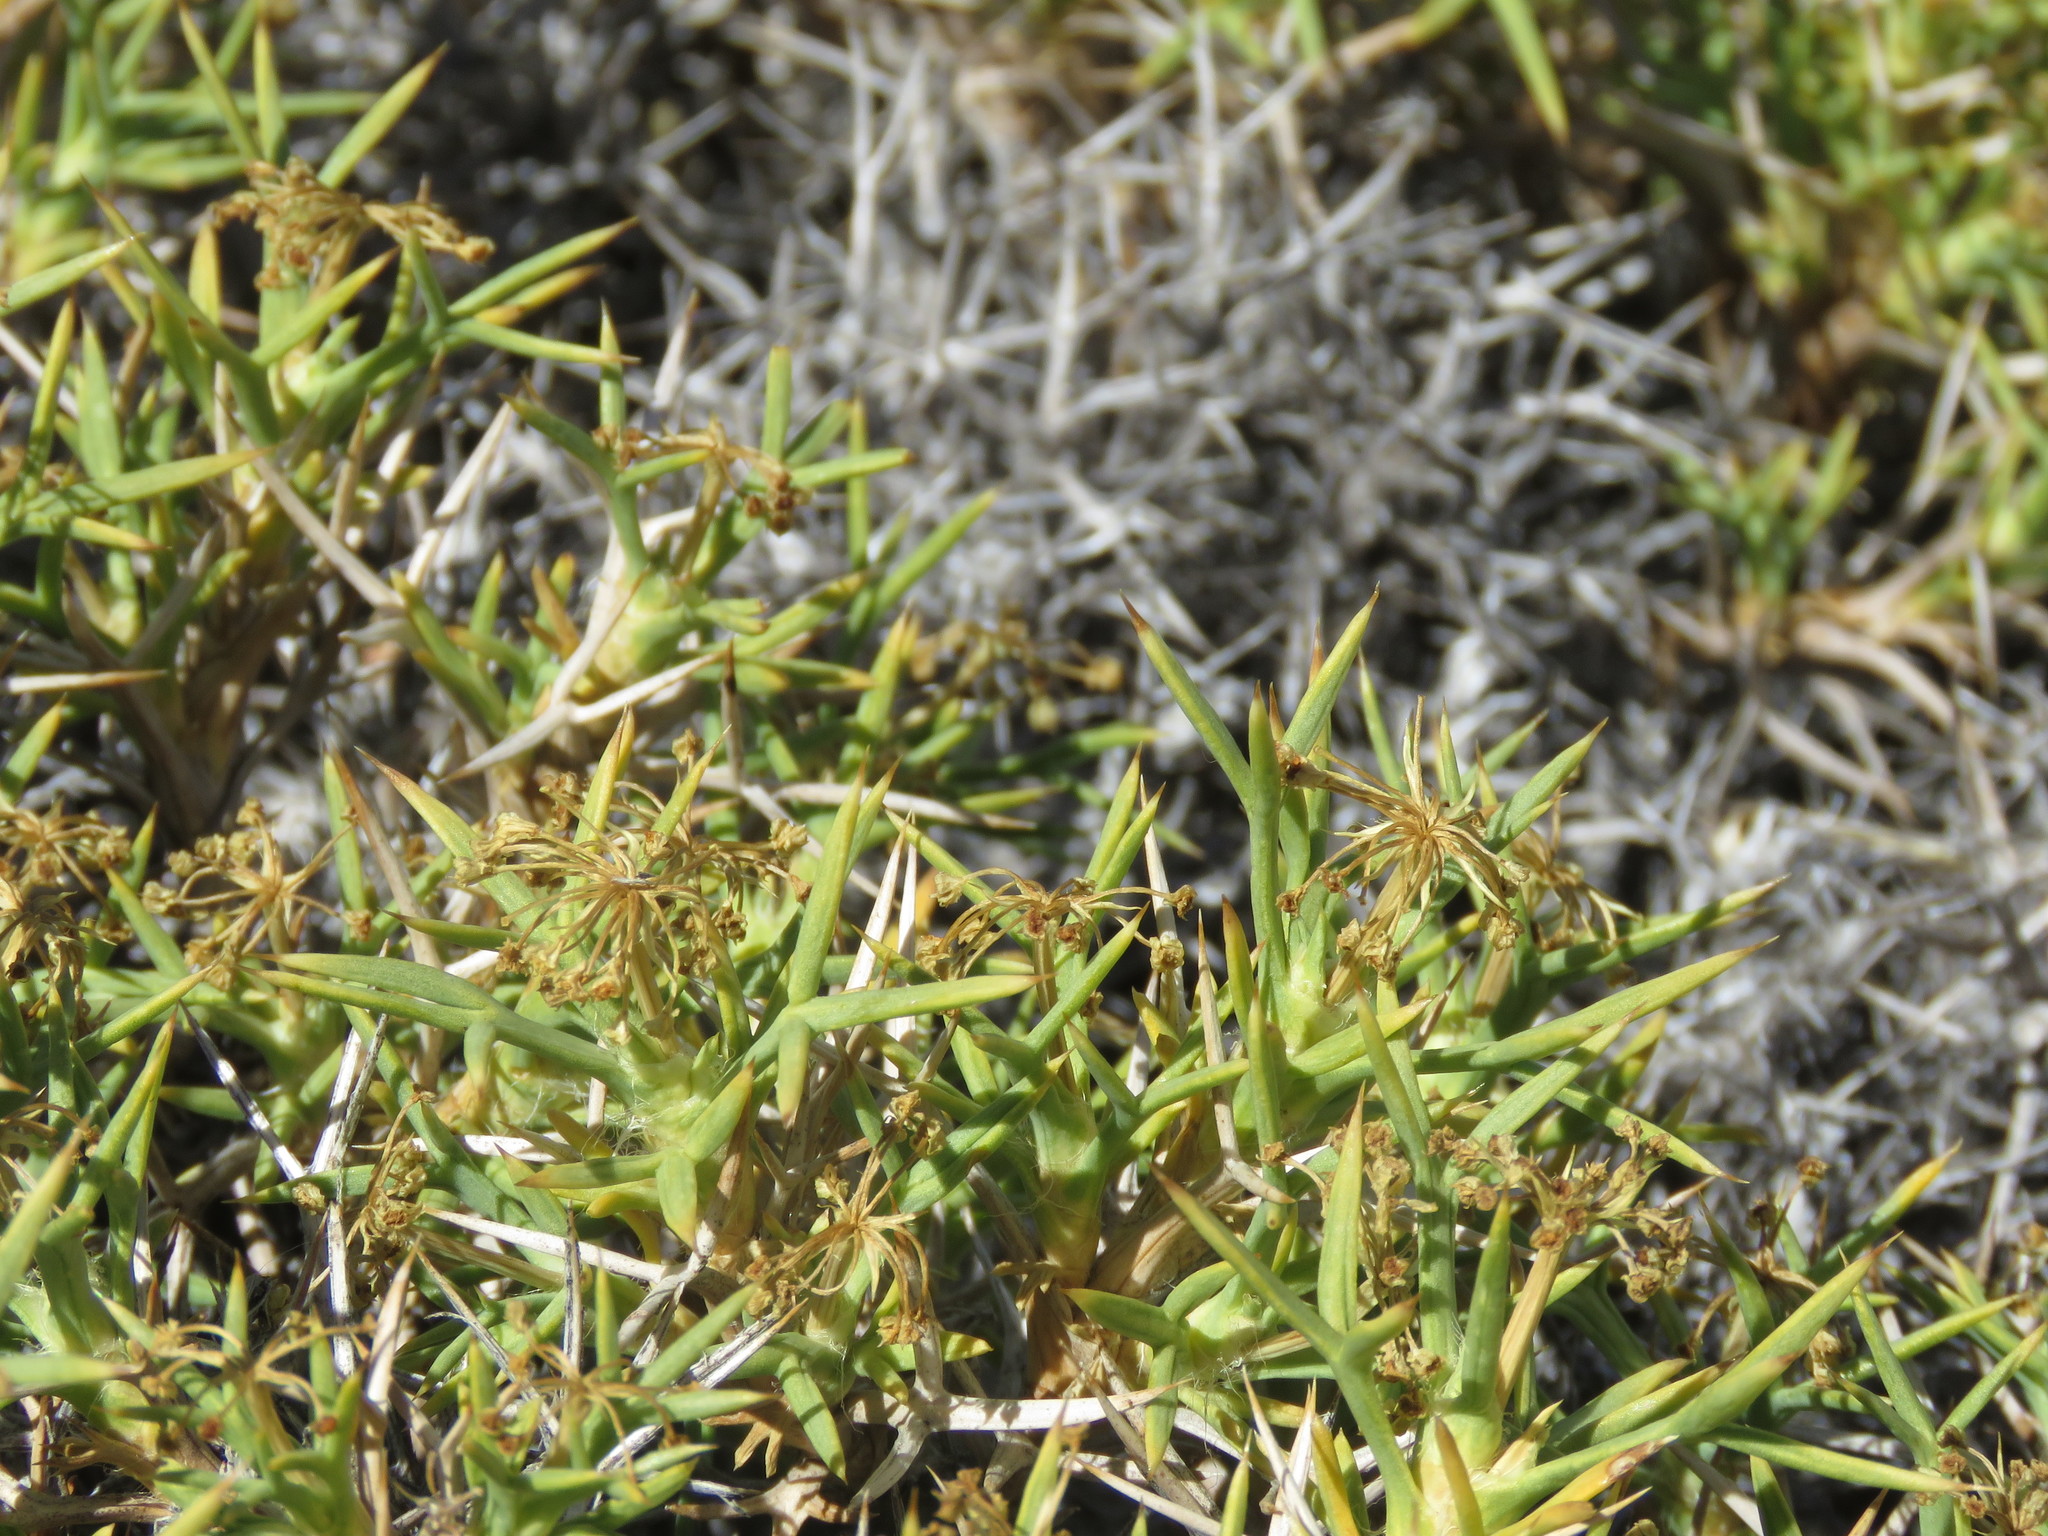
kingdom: Plantae
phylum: Tracheophyta
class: Magnoliopsida
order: Apiales
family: Apiaceae
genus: Azorella
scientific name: Azorella prolifera
